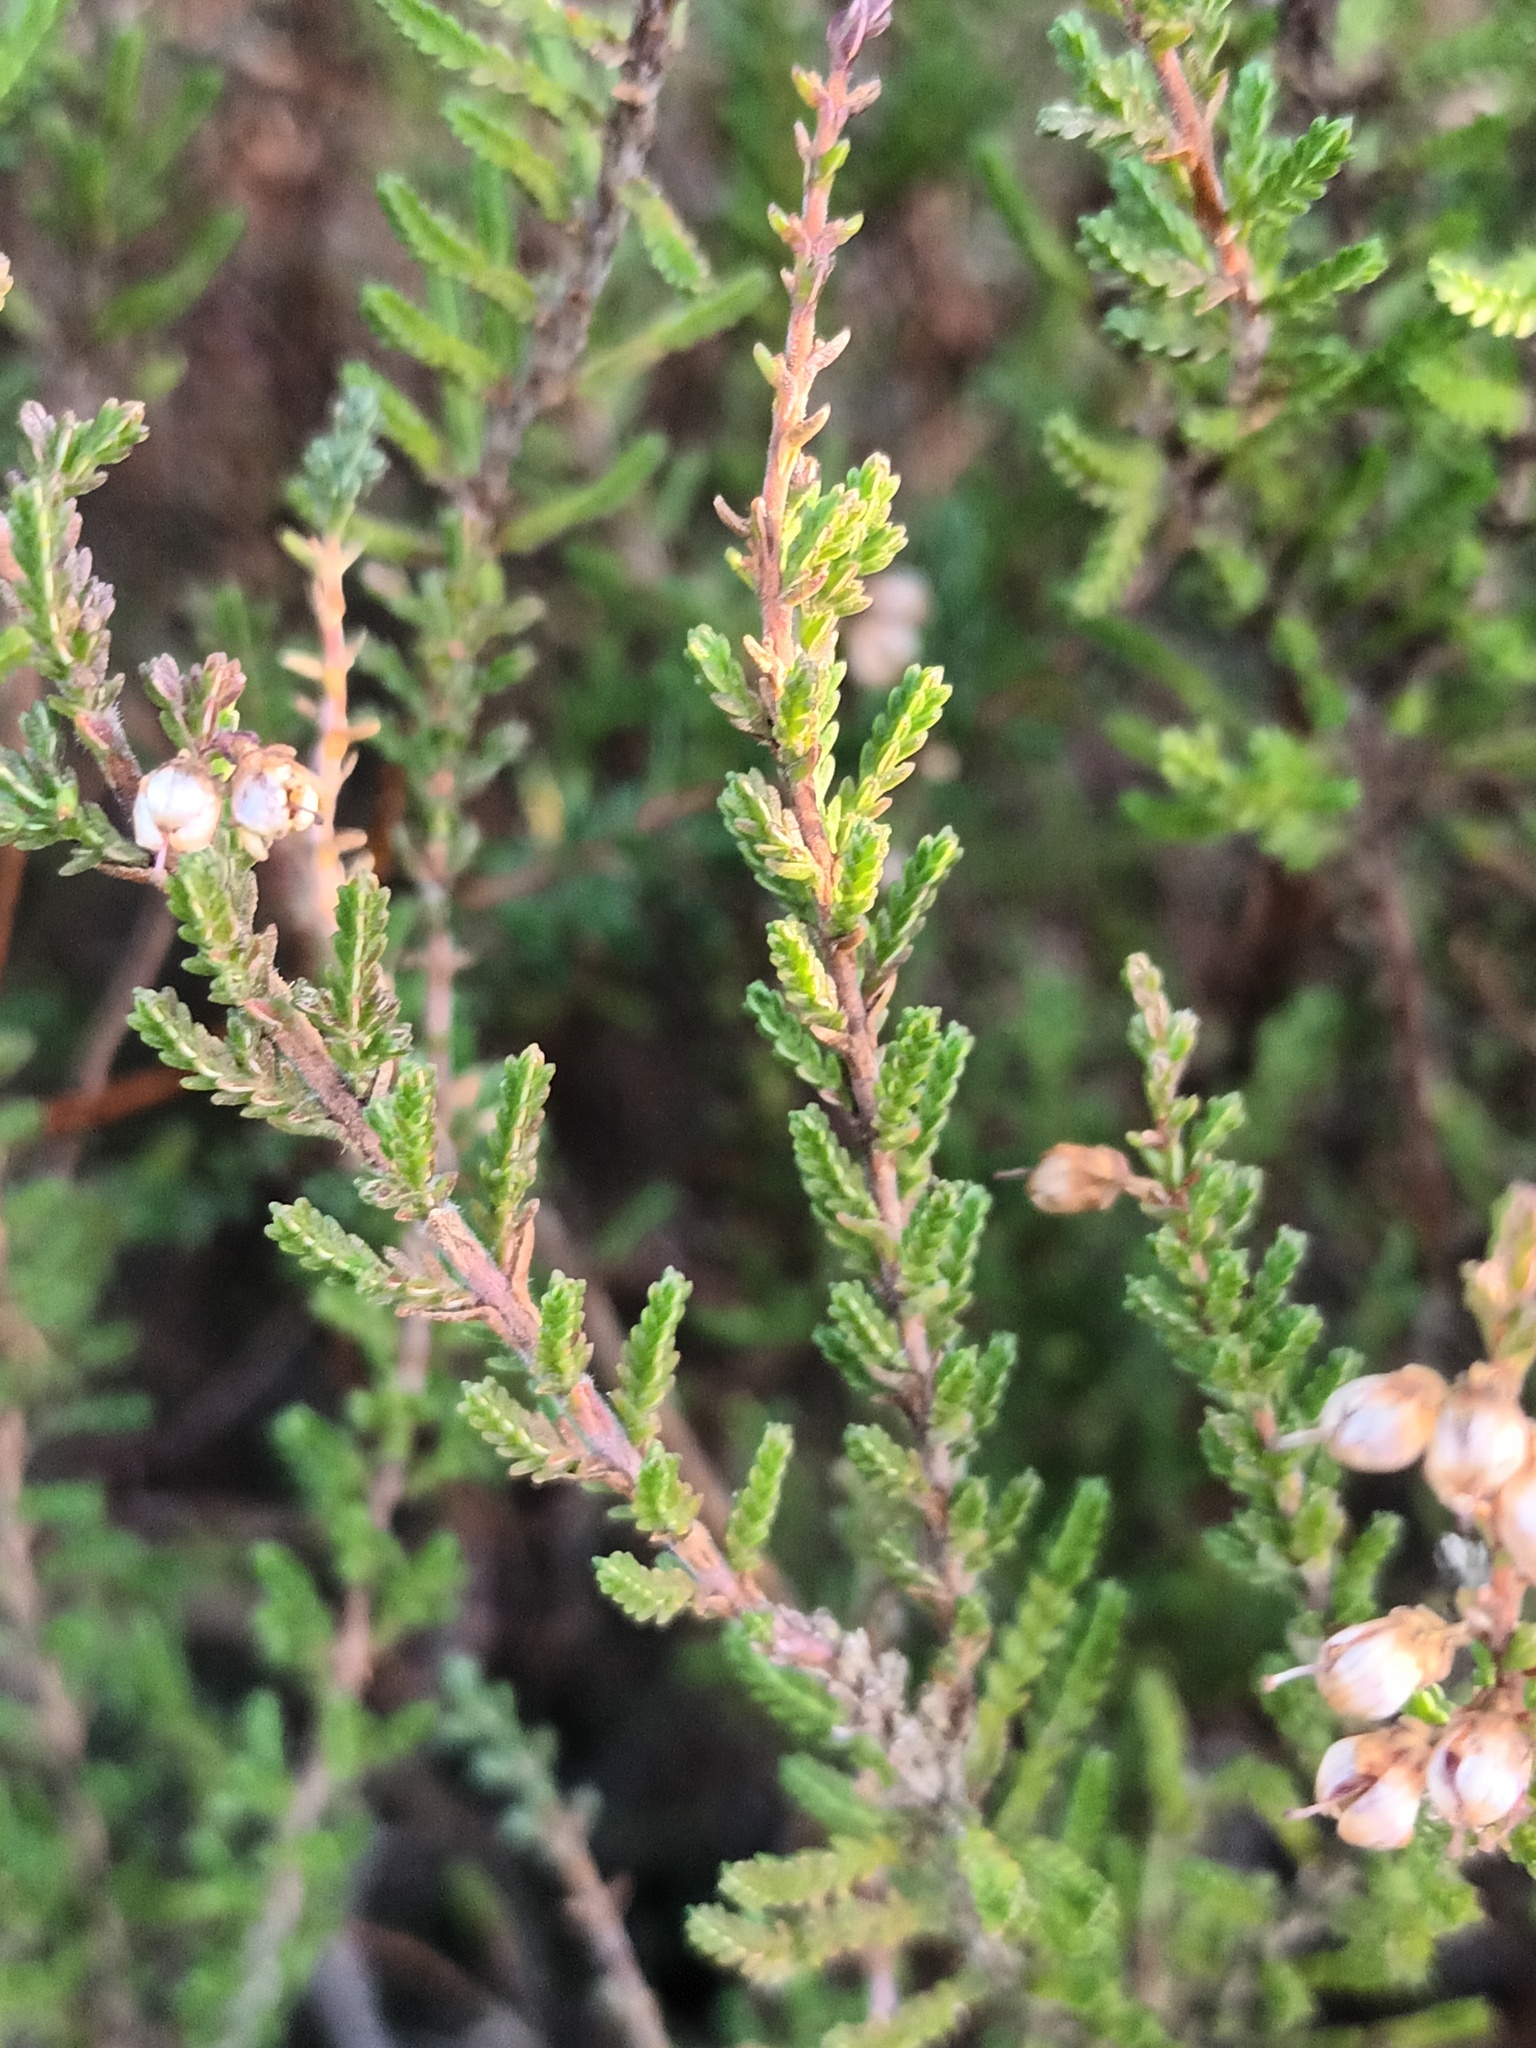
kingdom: Plantae
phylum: Tracheophyta
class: Magnoliopsida
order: Ericales
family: Ericaceae
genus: Calluna
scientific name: Calluna vulgaris
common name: Heather
